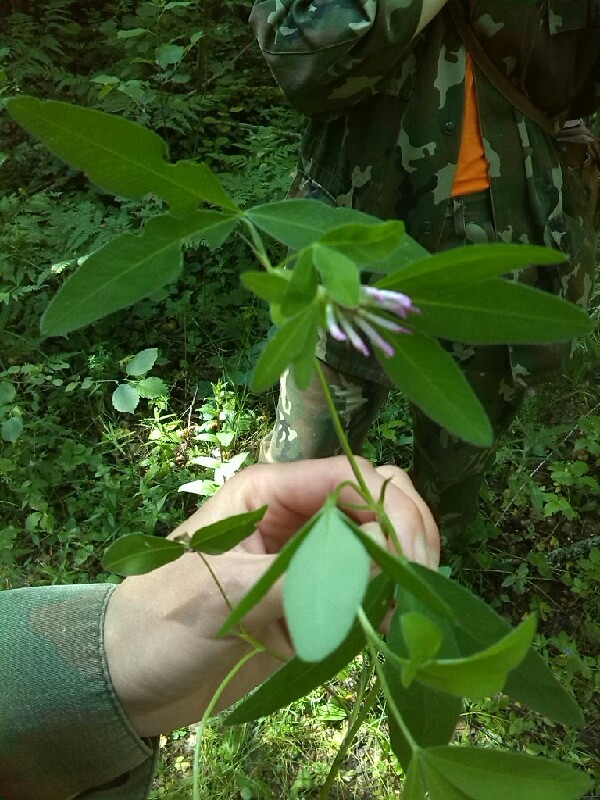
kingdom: Plantae
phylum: Tracheophyta
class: Magnoliopsida
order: Fabales
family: Fabaceae
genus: Trifolium
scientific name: Trifolium medium
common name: Zigzag clover
